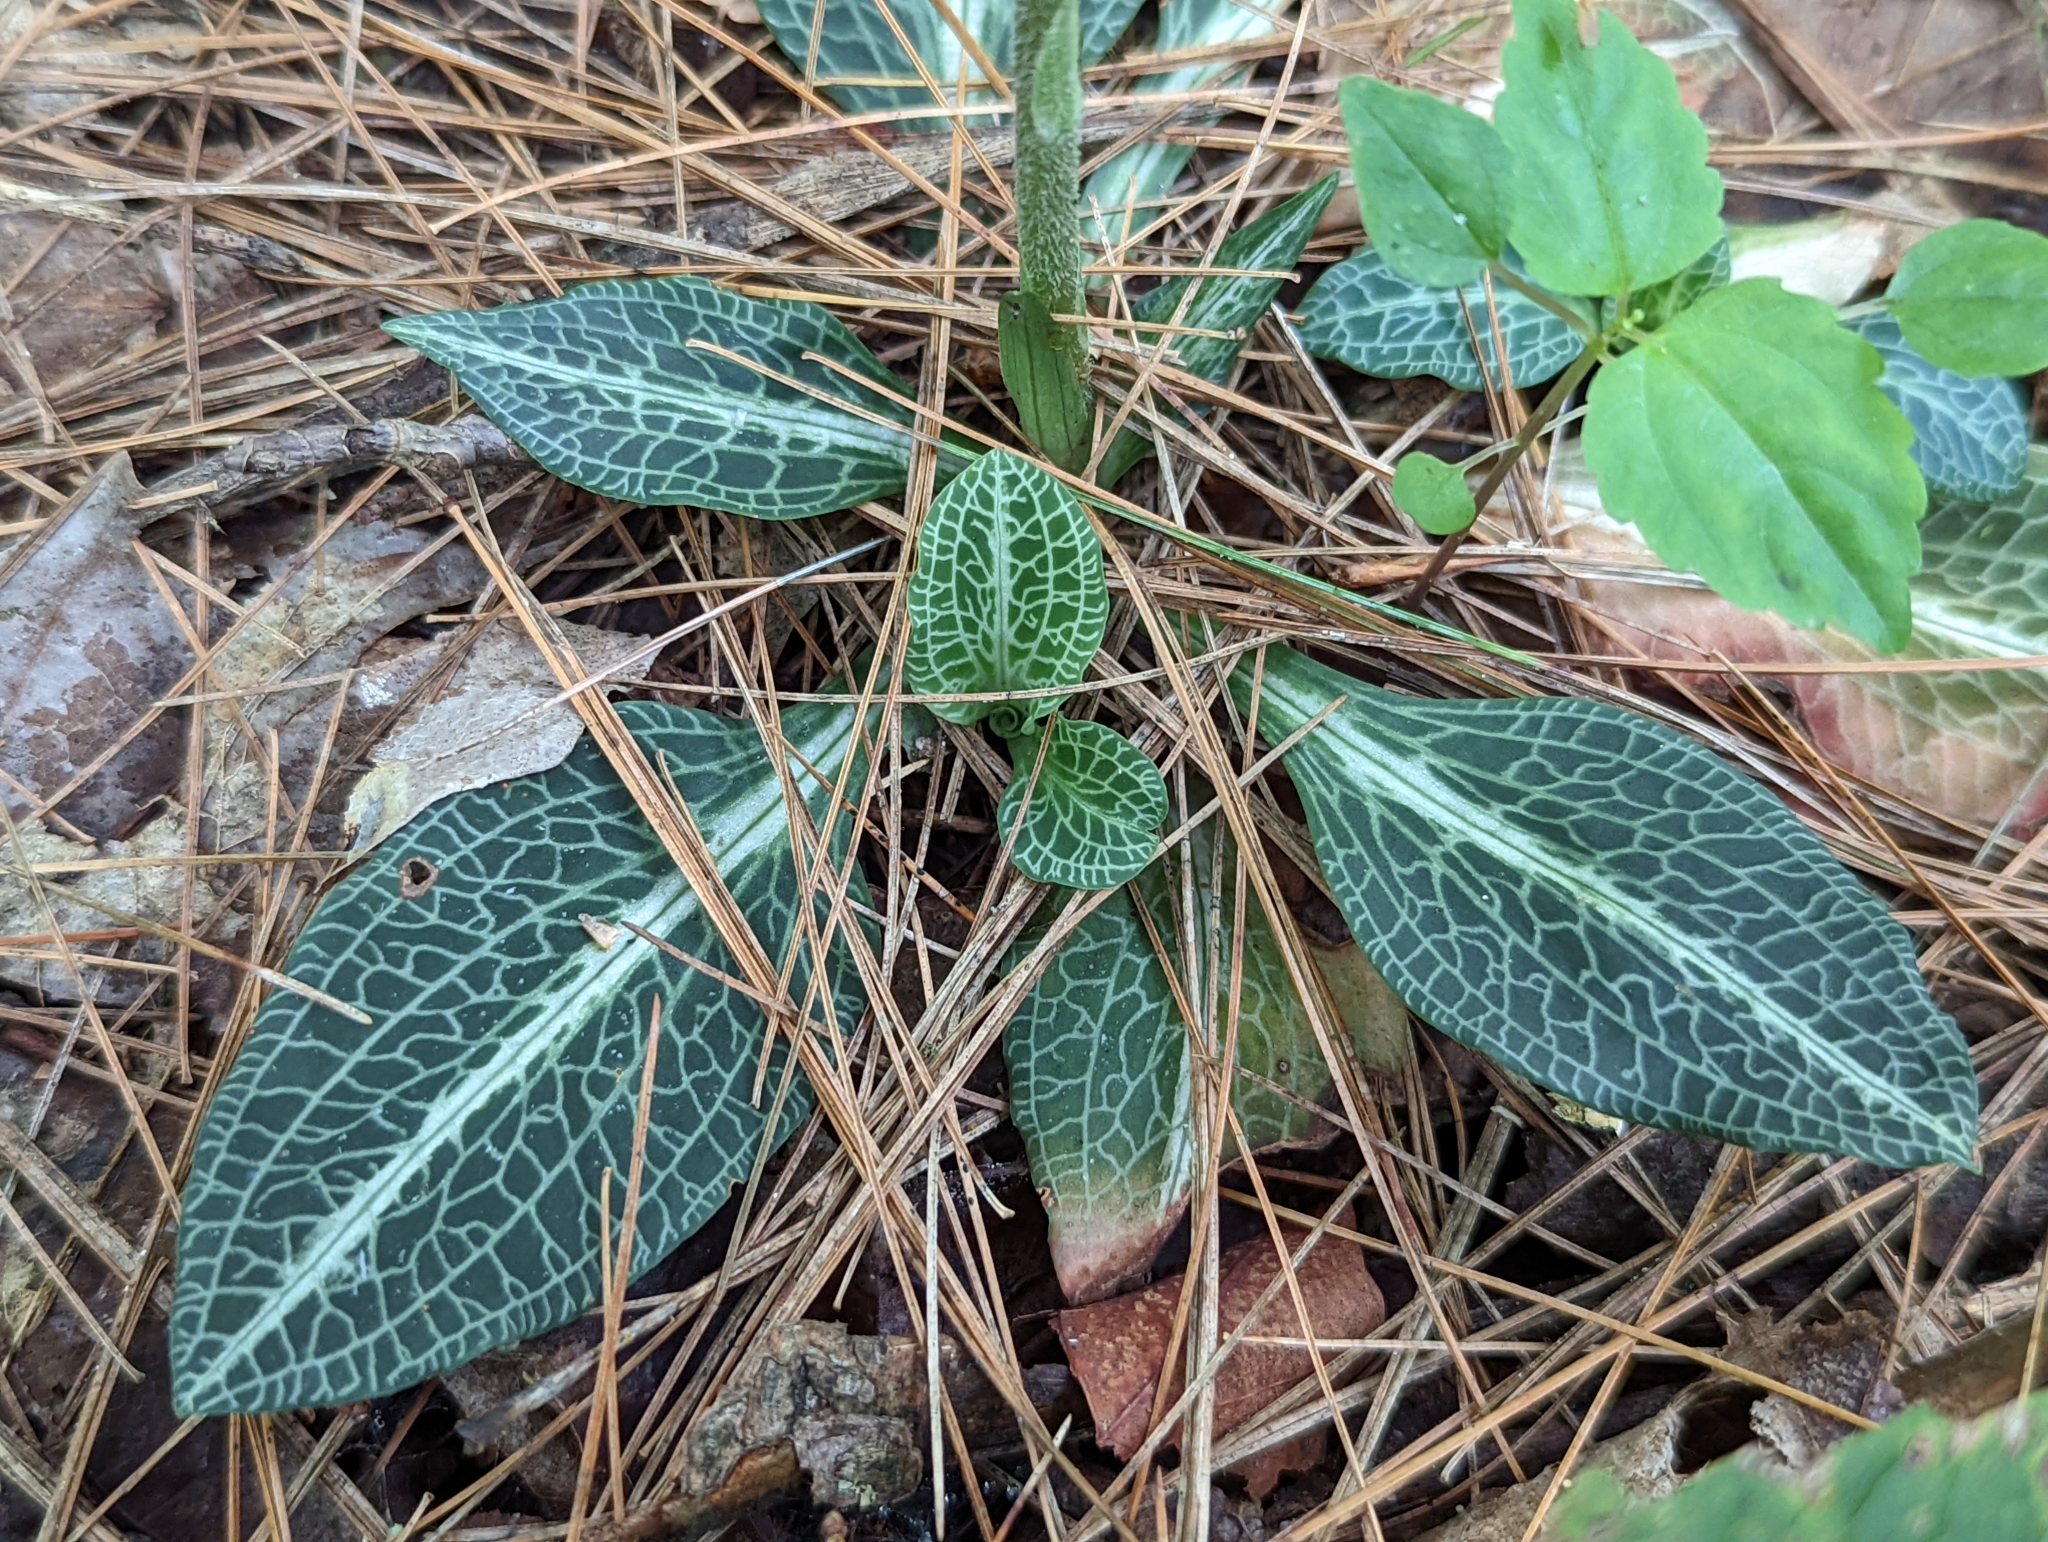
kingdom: Plantae
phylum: Tracheophyta
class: Liliopsida
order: Asparagales
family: Orchidaceae
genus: Goodyera
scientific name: Goodyera pubescens
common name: Downy rattlesnake-plantain
